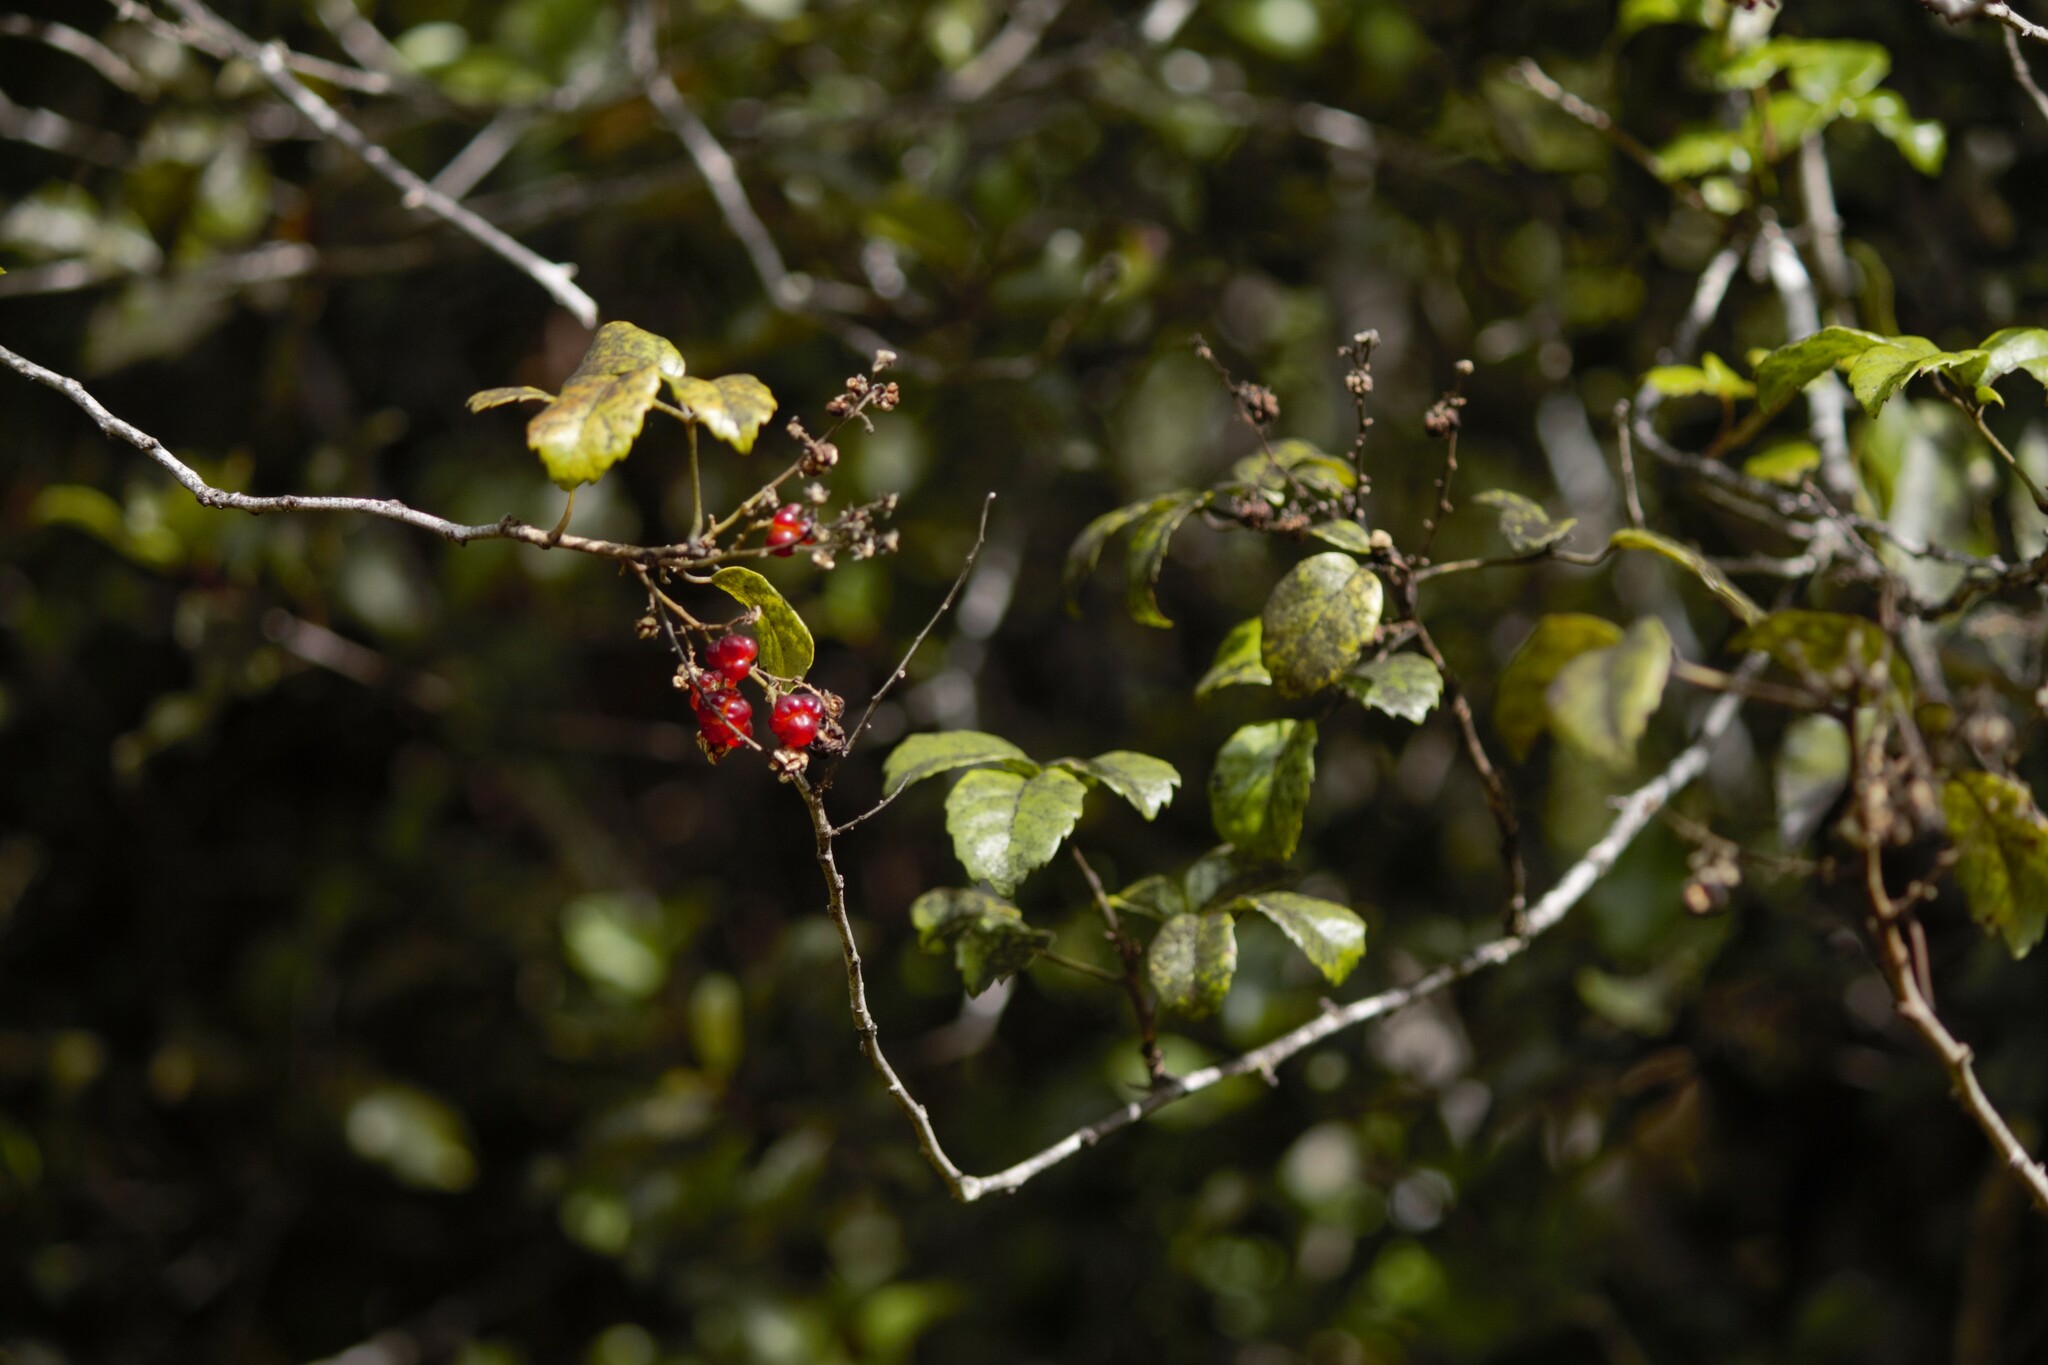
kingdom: Plantae
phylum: Tracheophyta
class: Magnoliopsida
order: Rosales
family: Rosaceae
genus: Rubus
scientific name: Rubus australis
